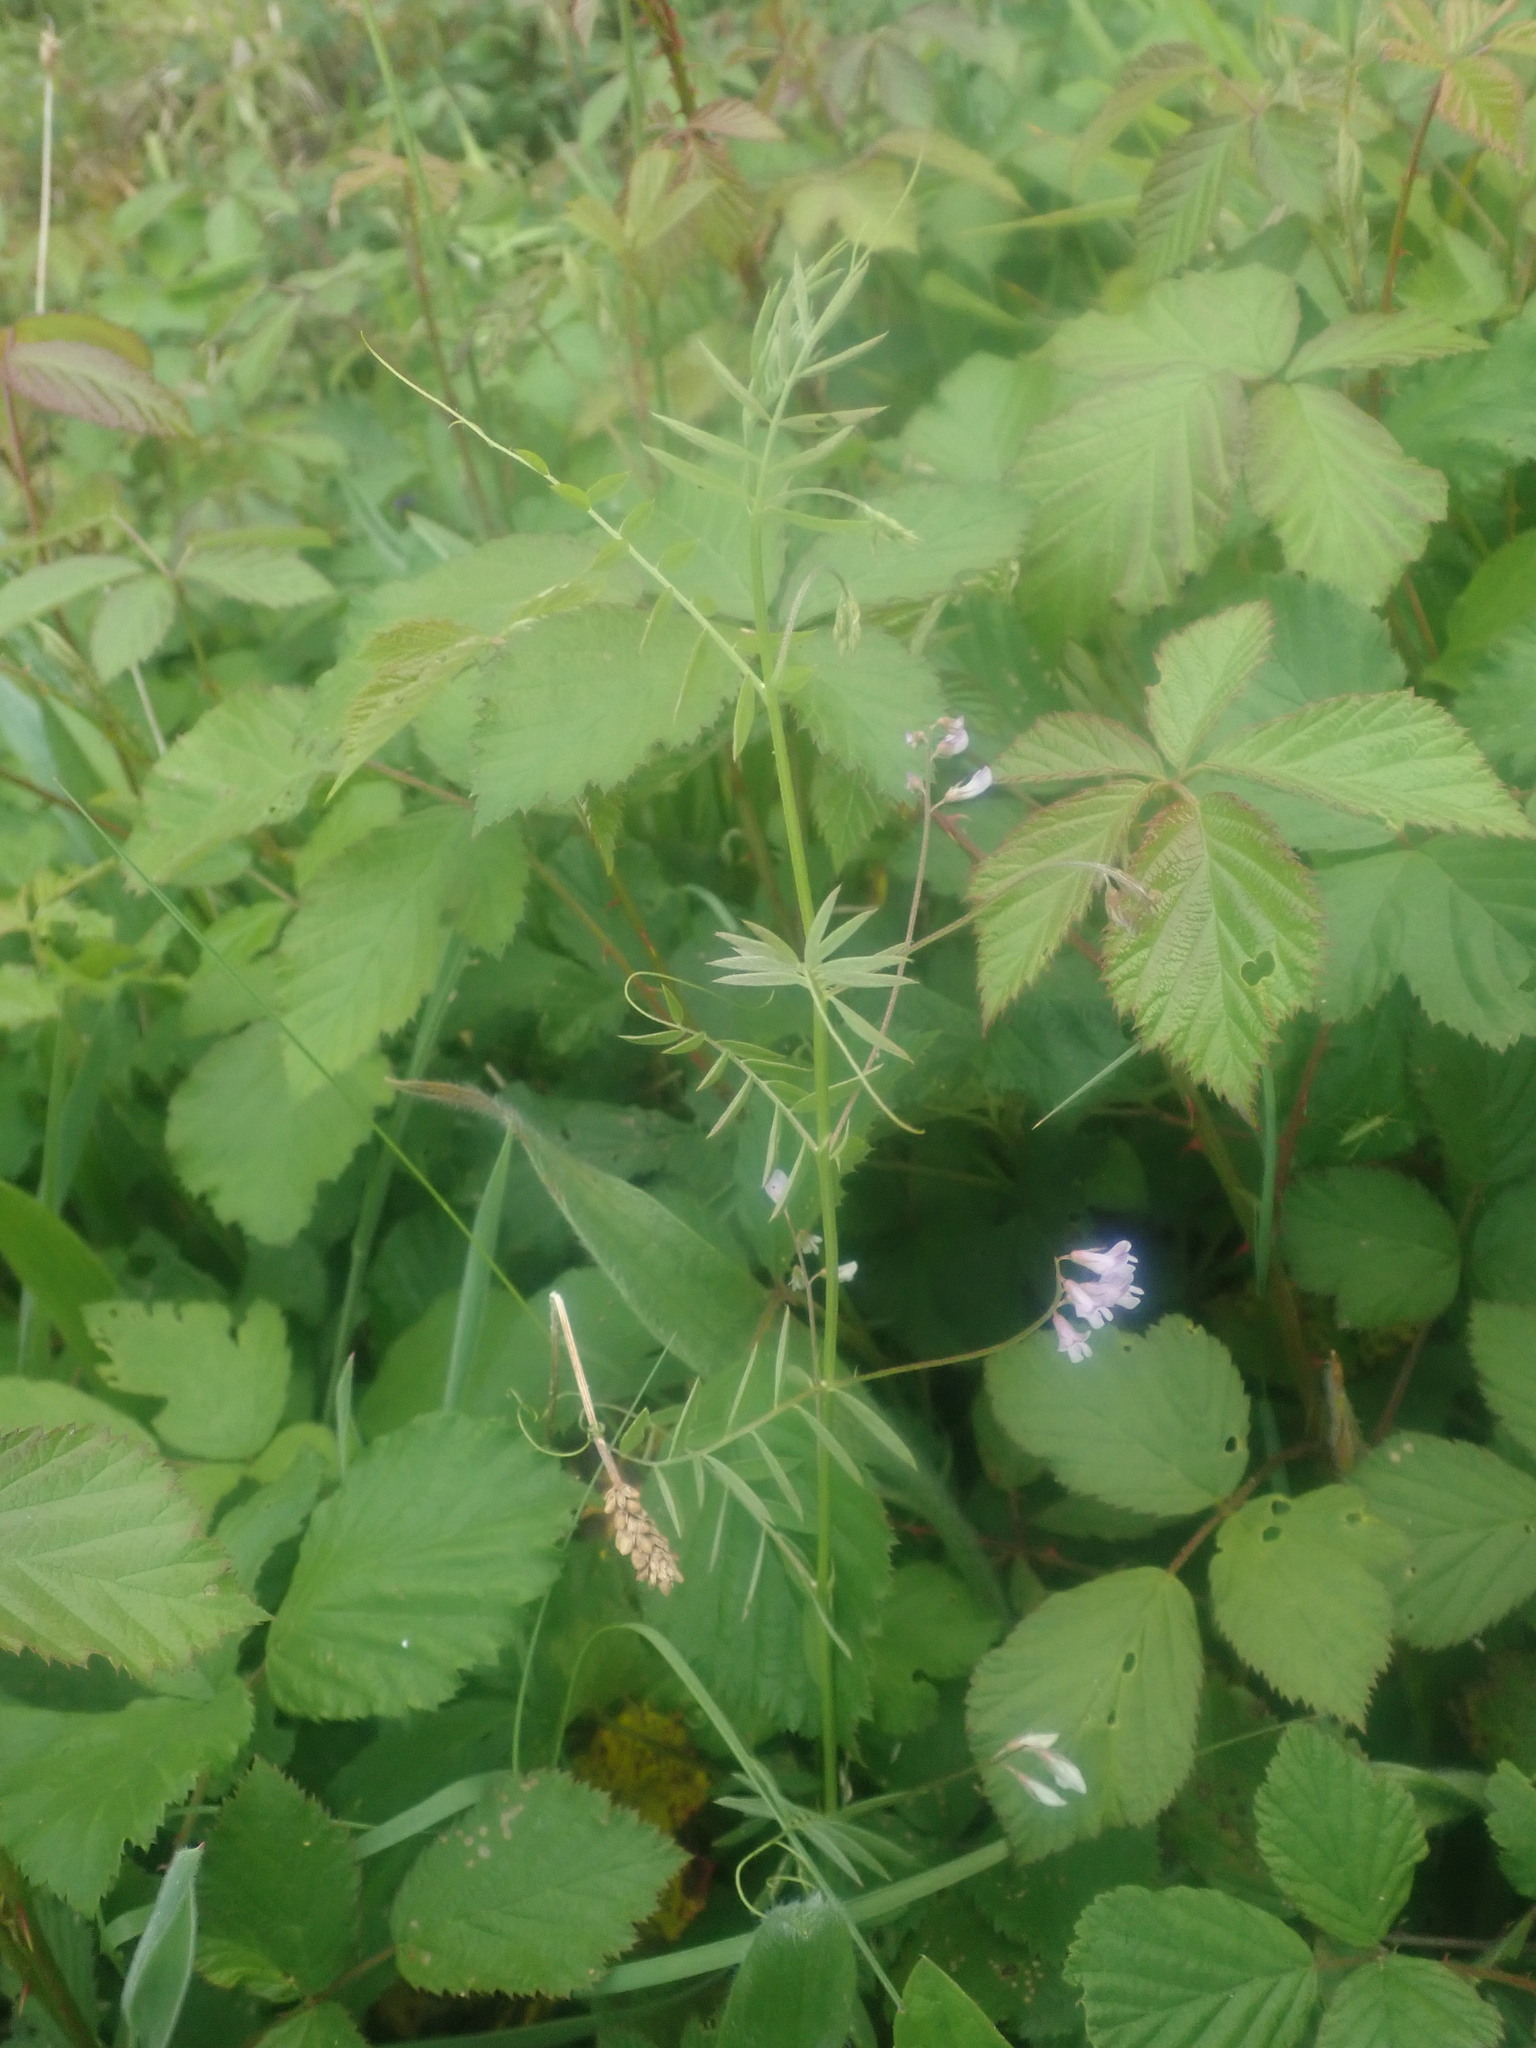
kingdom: Plantae
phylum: Tracheophyta
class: Magnoliopsida
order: Fabales
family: Fabaceae
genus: Vicia
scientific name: Vicia disperma
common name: European vetch
